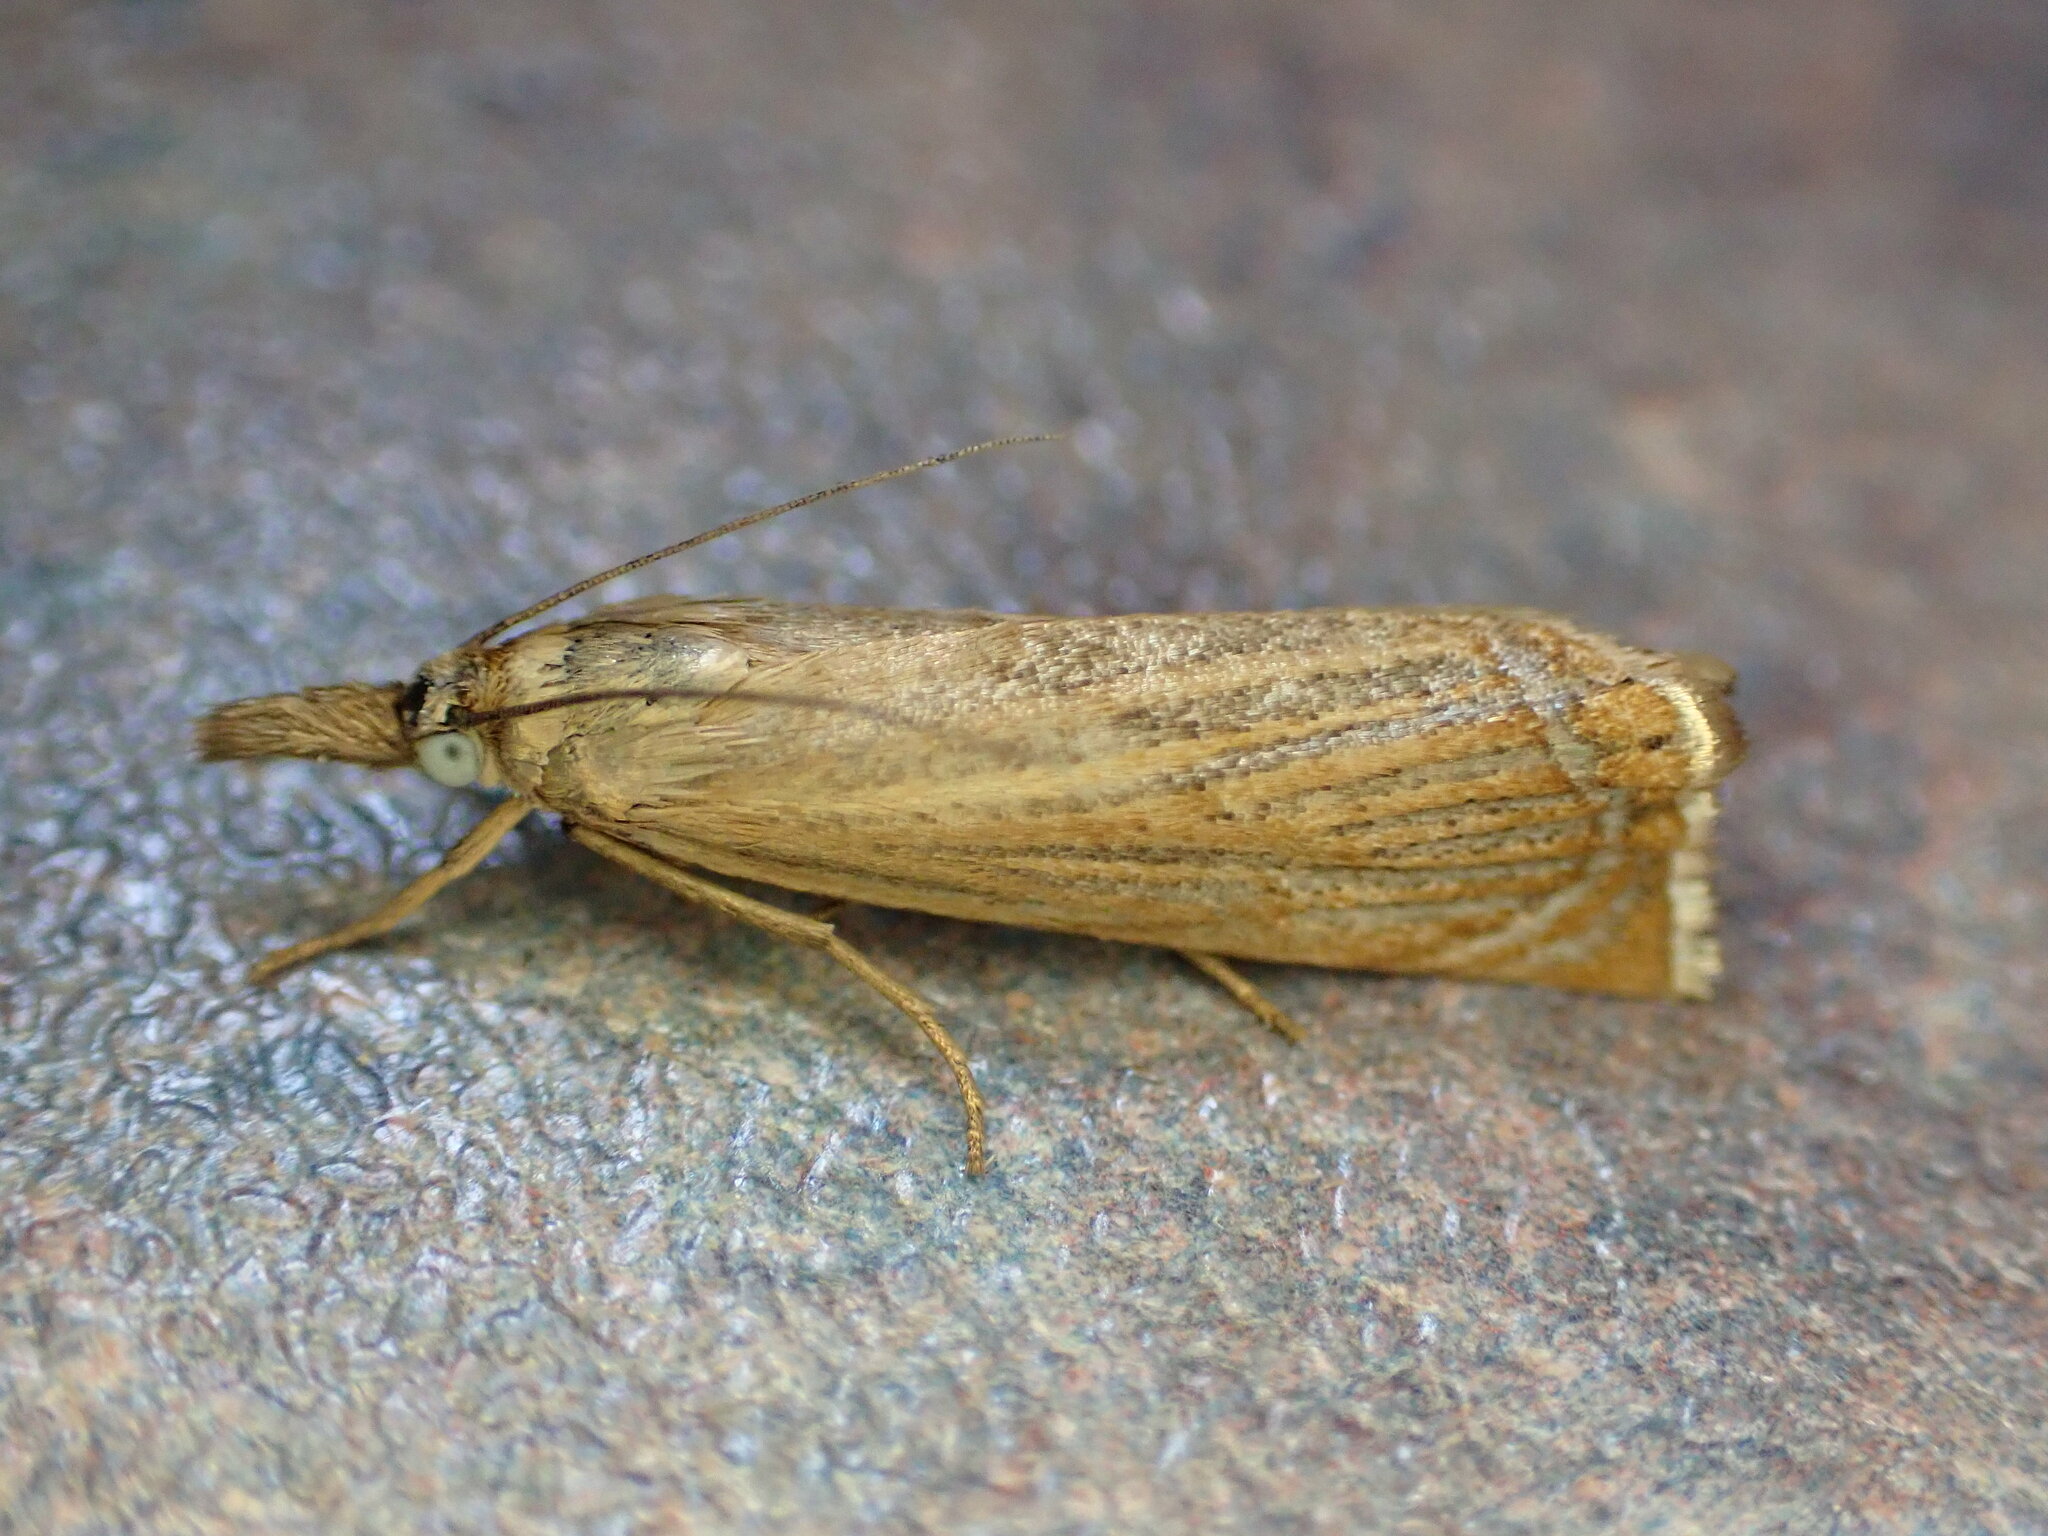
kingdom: Animalia
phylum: Arthropoda
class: Insecta
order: Lepidoptera
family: Crambidae
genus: Chrysoteuchia
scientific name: Chrysoteuchia culmella
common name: Garden grass-veneer
